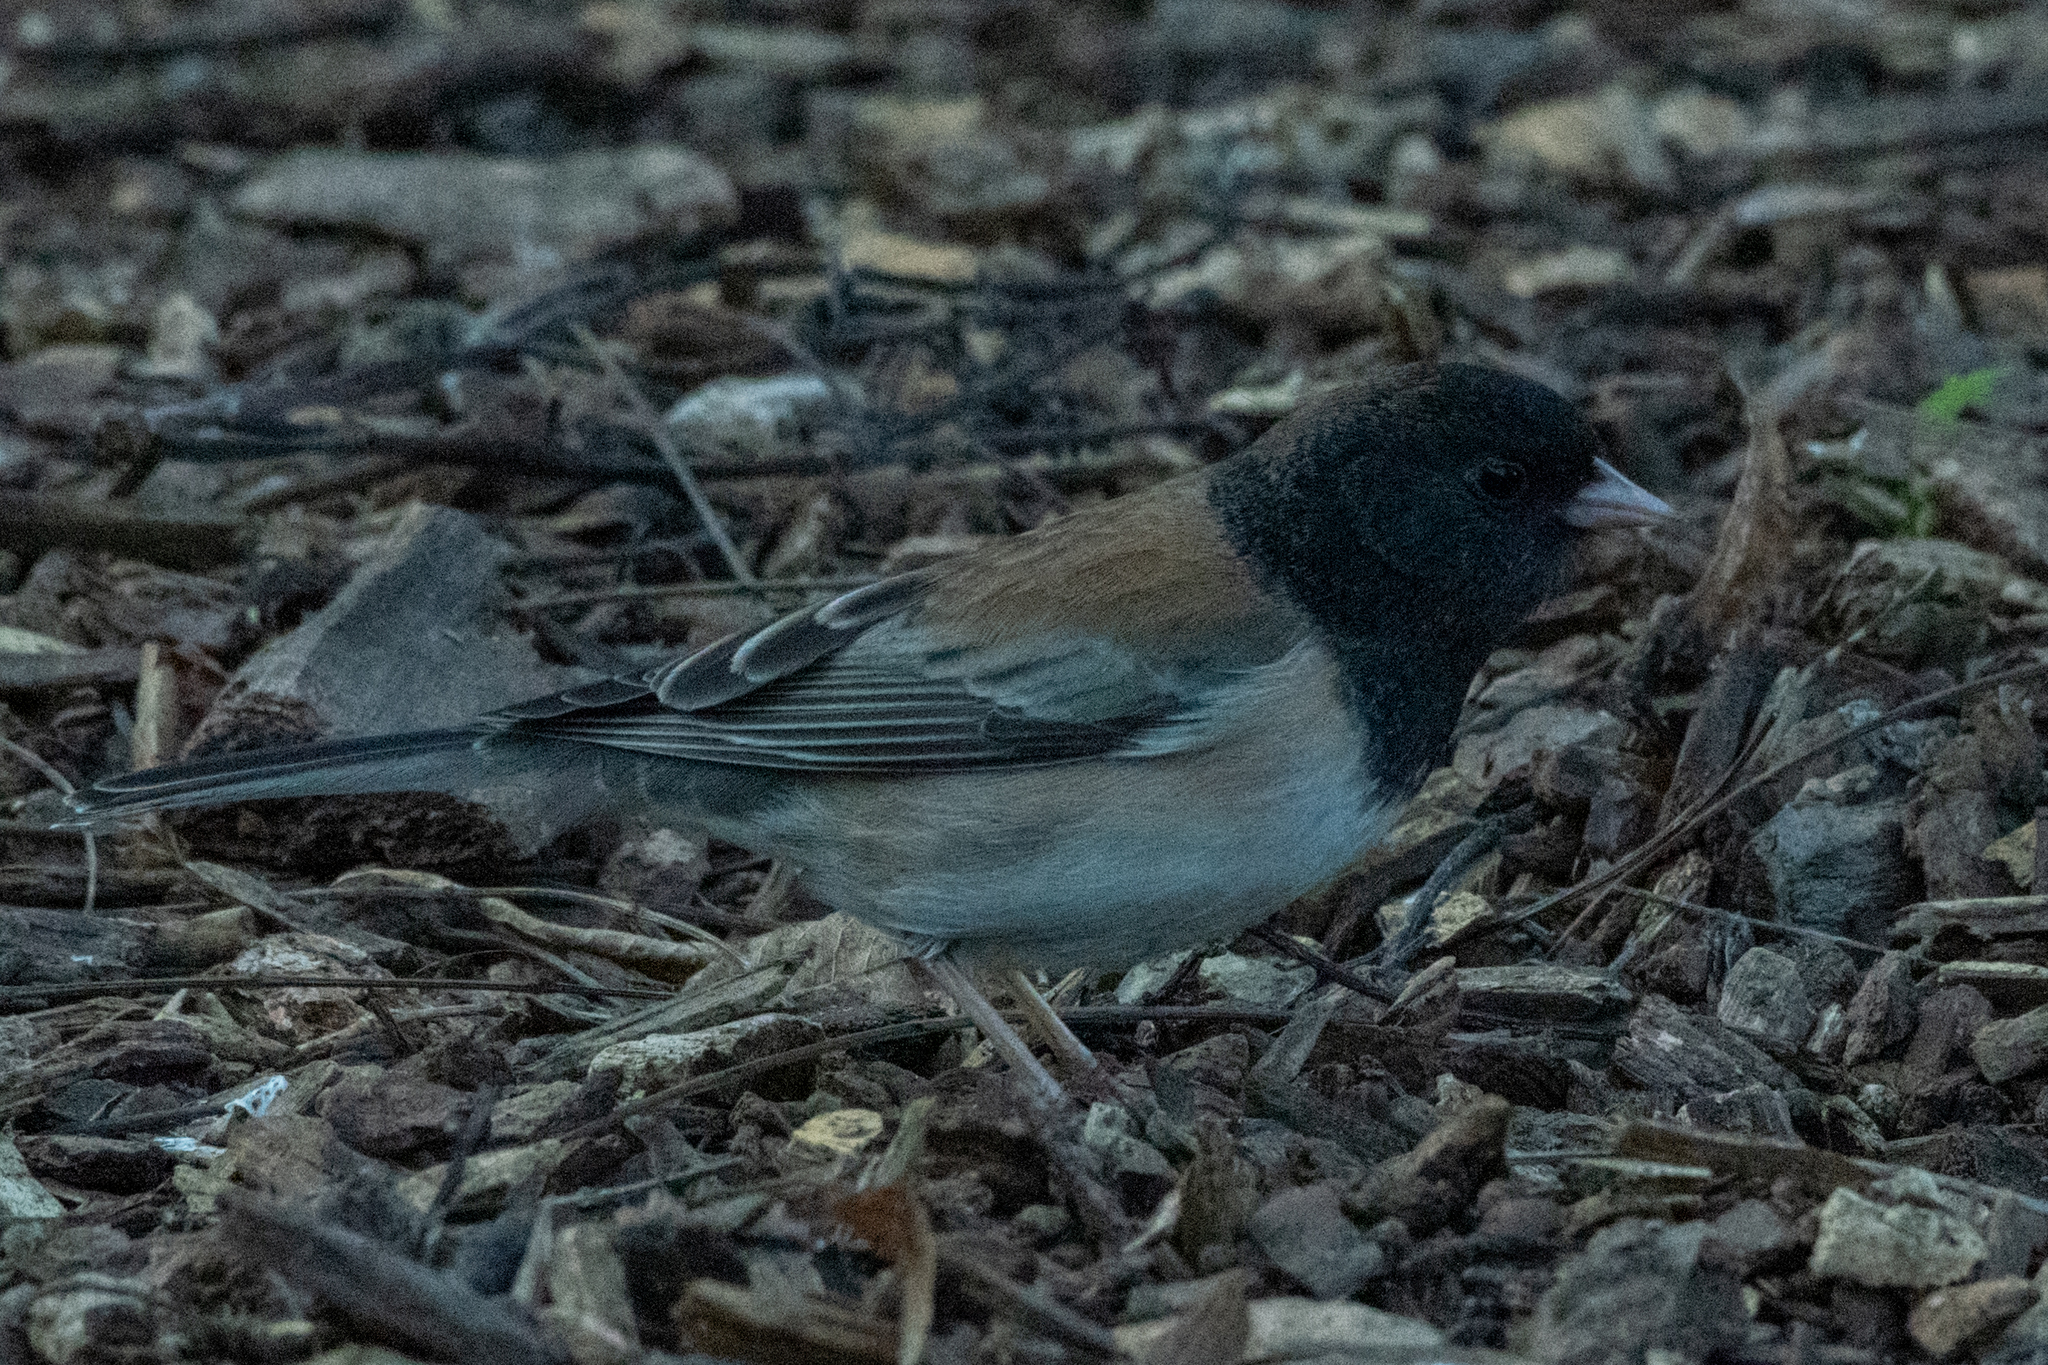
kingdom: Animalia
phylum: Chordata
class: Aves
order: Passeriformes
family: Passerellidae
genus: Junco
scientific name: Junco hyemalis
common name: Dark-eyed junco
